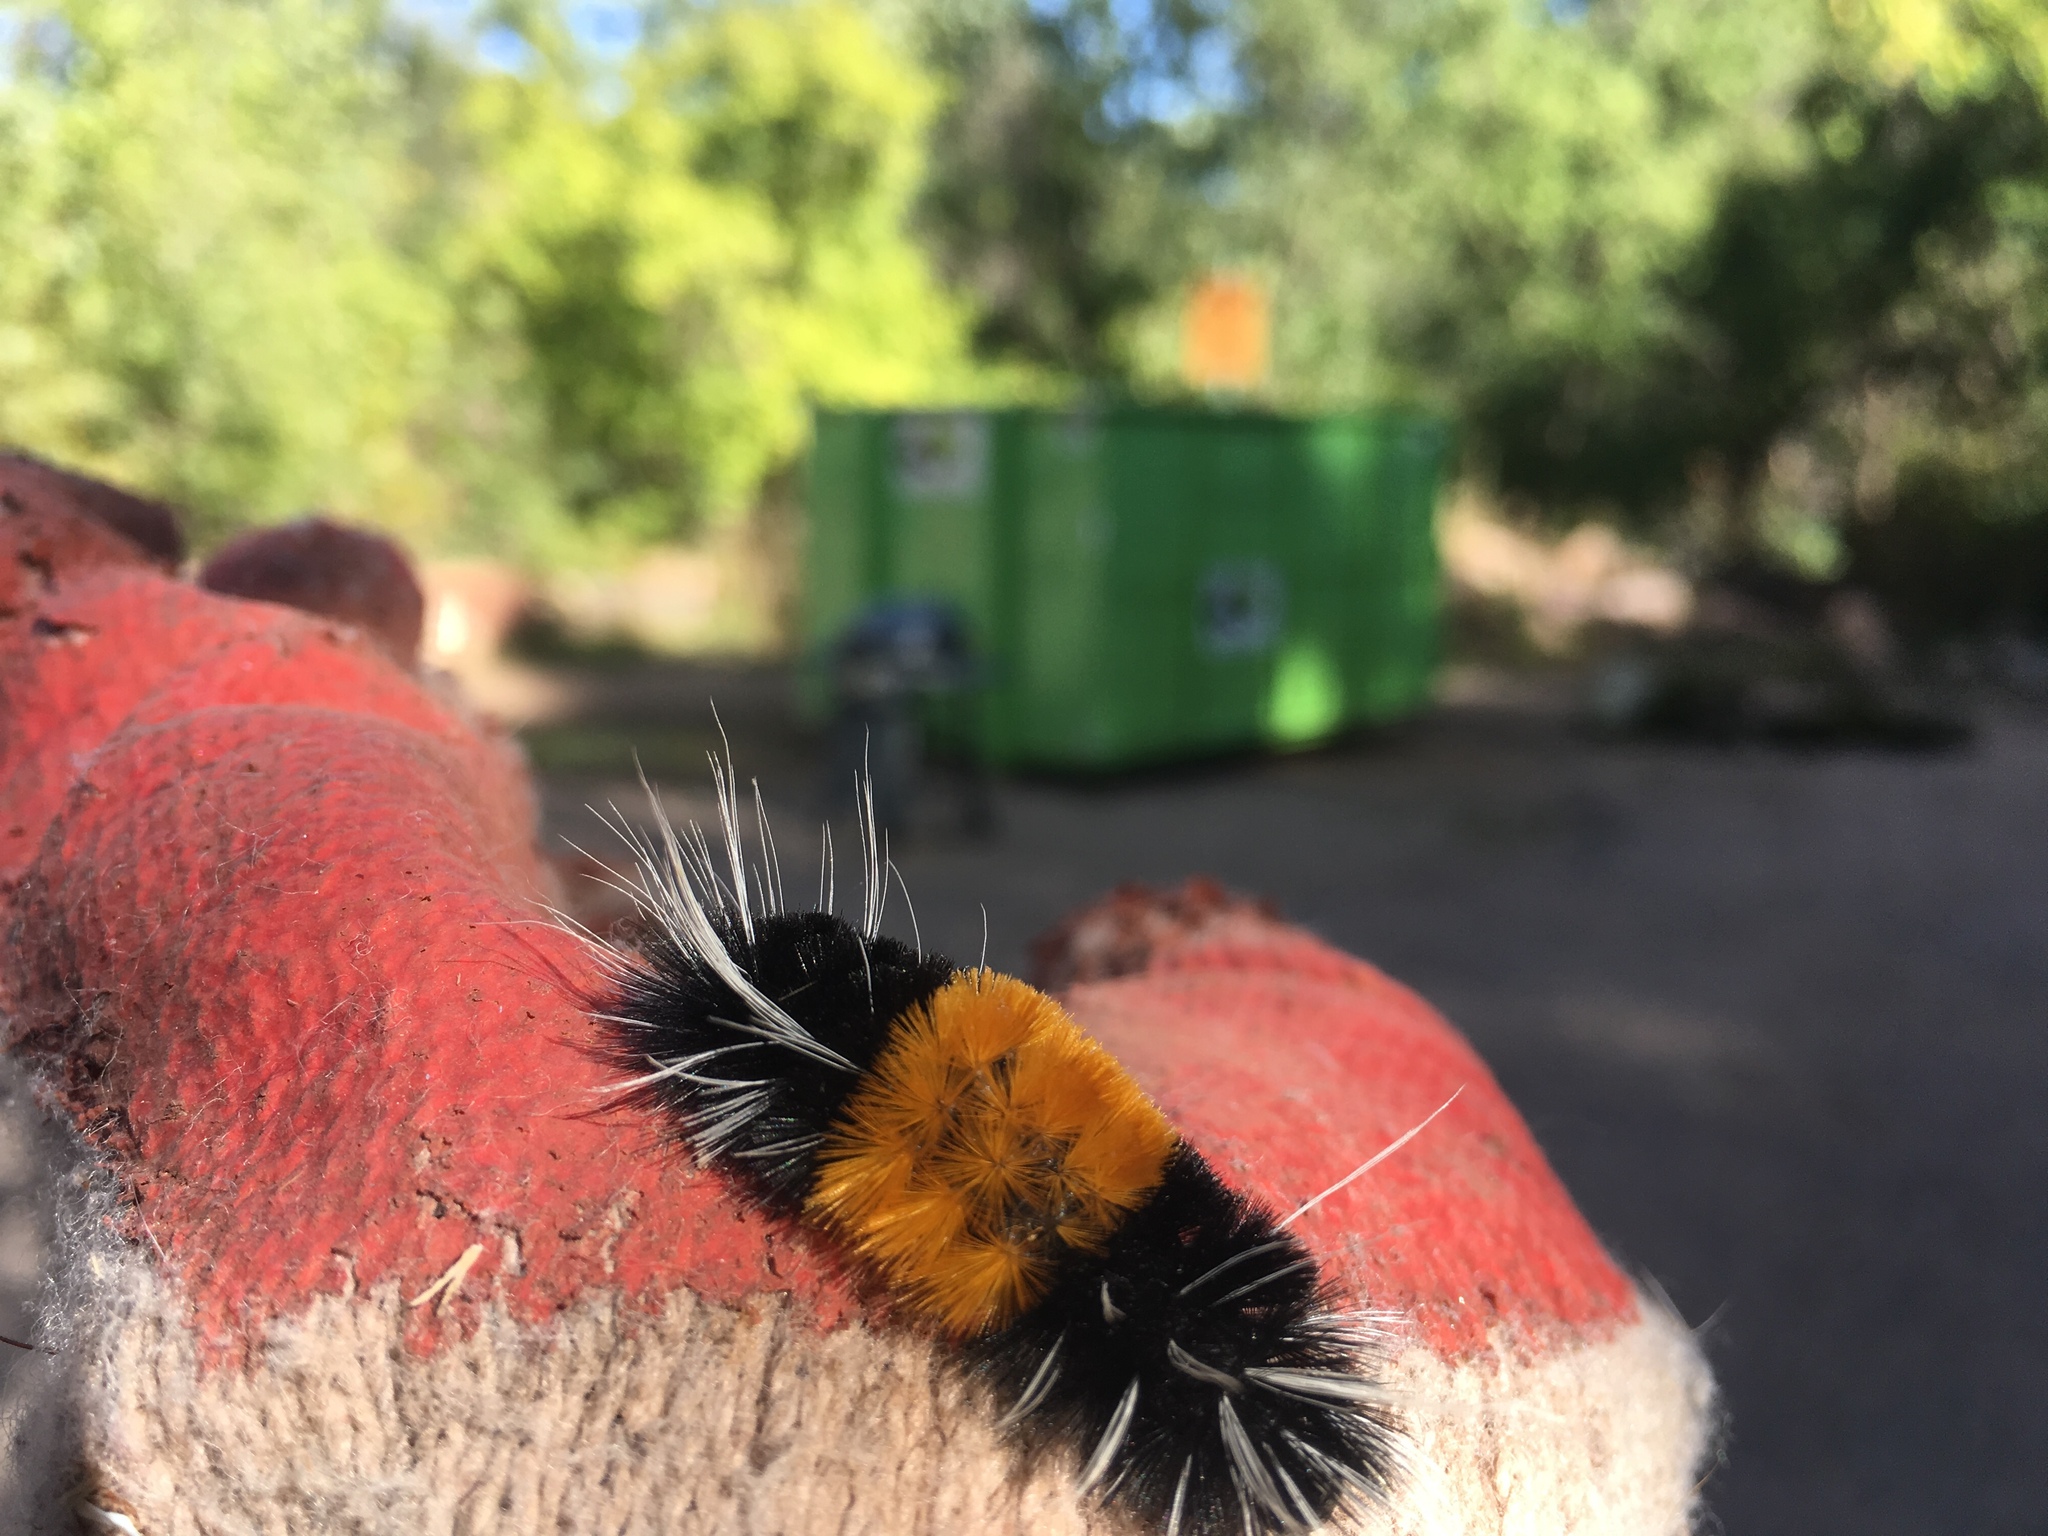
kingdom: Animalia
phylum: Arthropoda
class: Insecta
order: Lepidoptera
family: Erebidae
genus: Lophocampa
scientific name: Lophocampa maculata
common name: Spotted tussock moth
